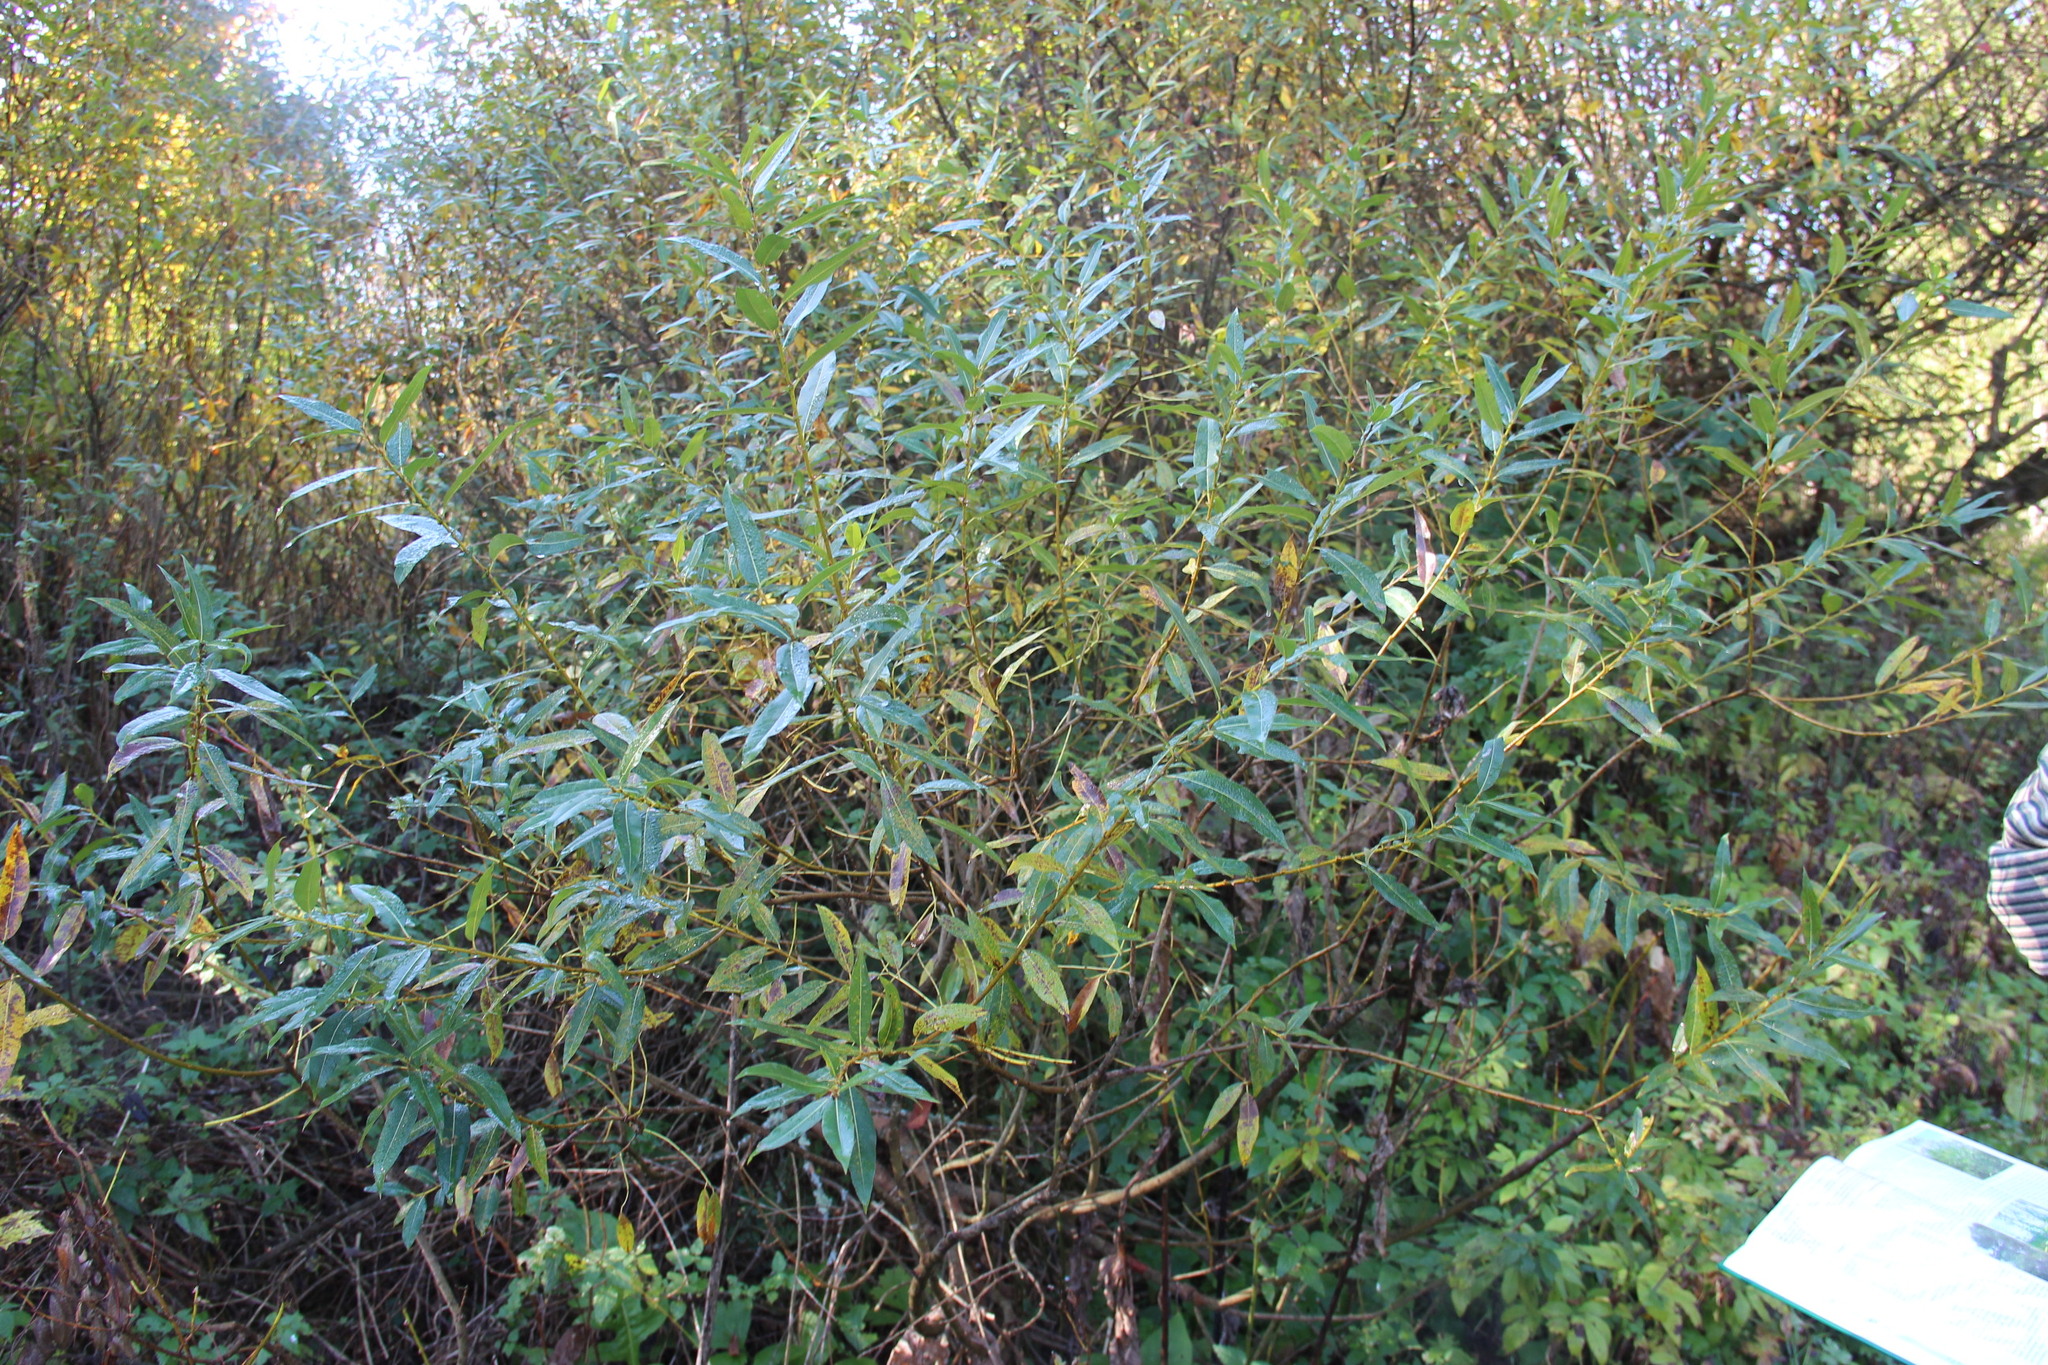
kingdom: Plantae
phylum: Tracheophyta
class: Magnoliopsida
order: Malpighiales
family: Salicaceae
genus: Salix
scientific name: Salix triandra
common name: Almond willow
